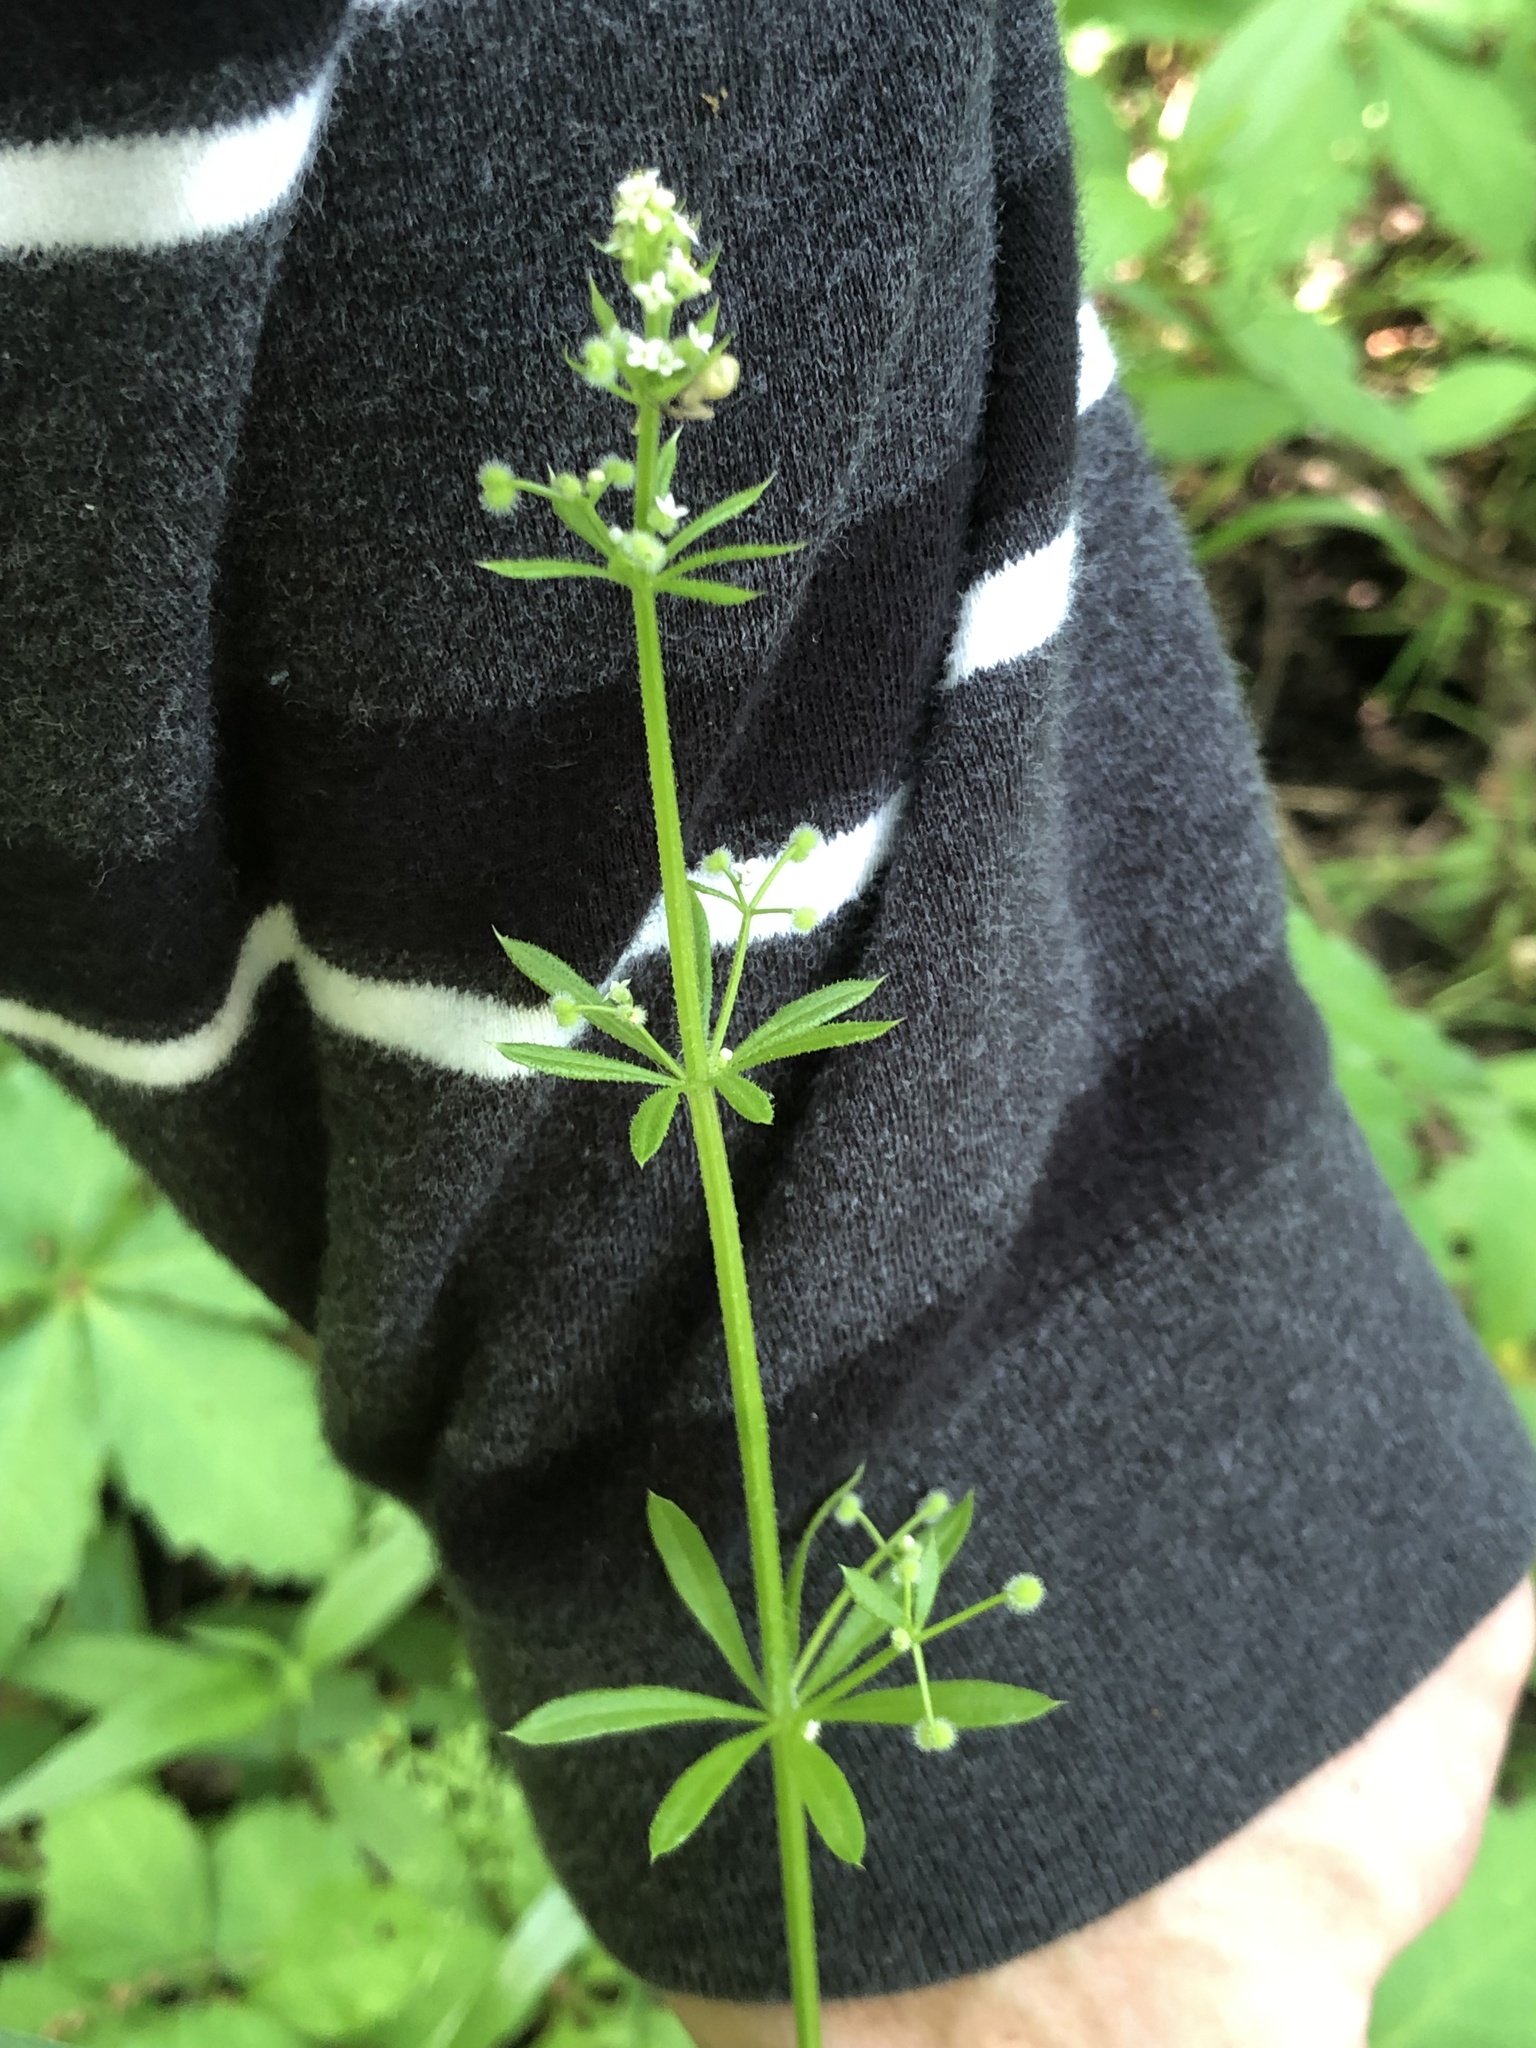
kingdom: Plantae
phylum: Tracheophyta
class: Magnoliopsida
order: Gentianales
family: Rubiaceae
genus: Galium
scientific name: Galium aparine
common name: Cleavers
